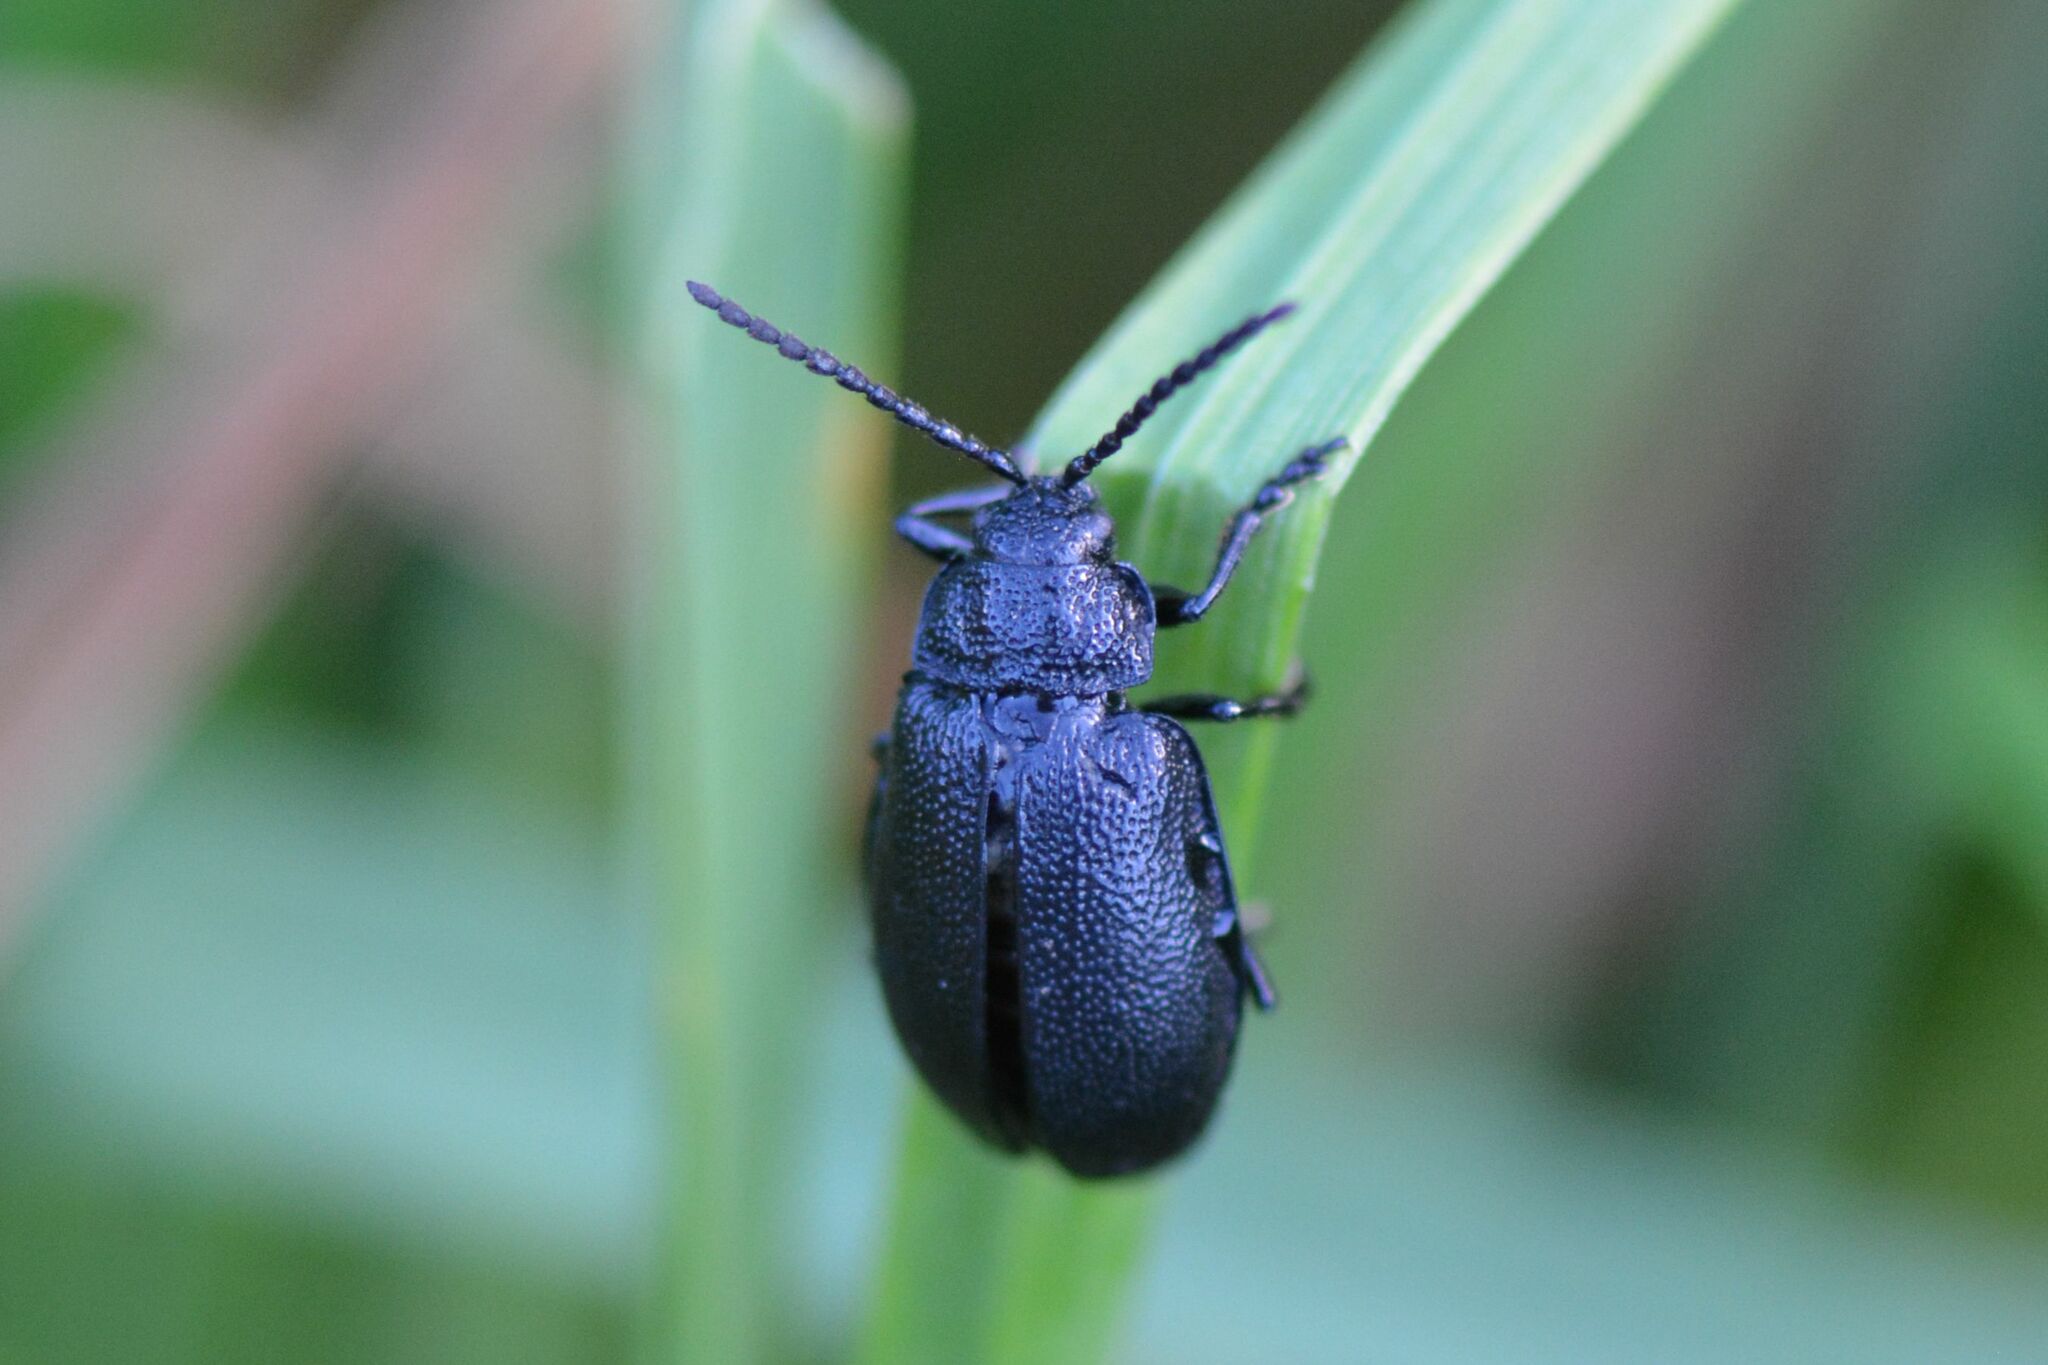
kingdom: Animalia
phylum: Arthropoda
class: Insecta
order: Coleoptera
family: Chrysomelidae
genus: Galeruca
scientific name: Galeruca tanaceti
